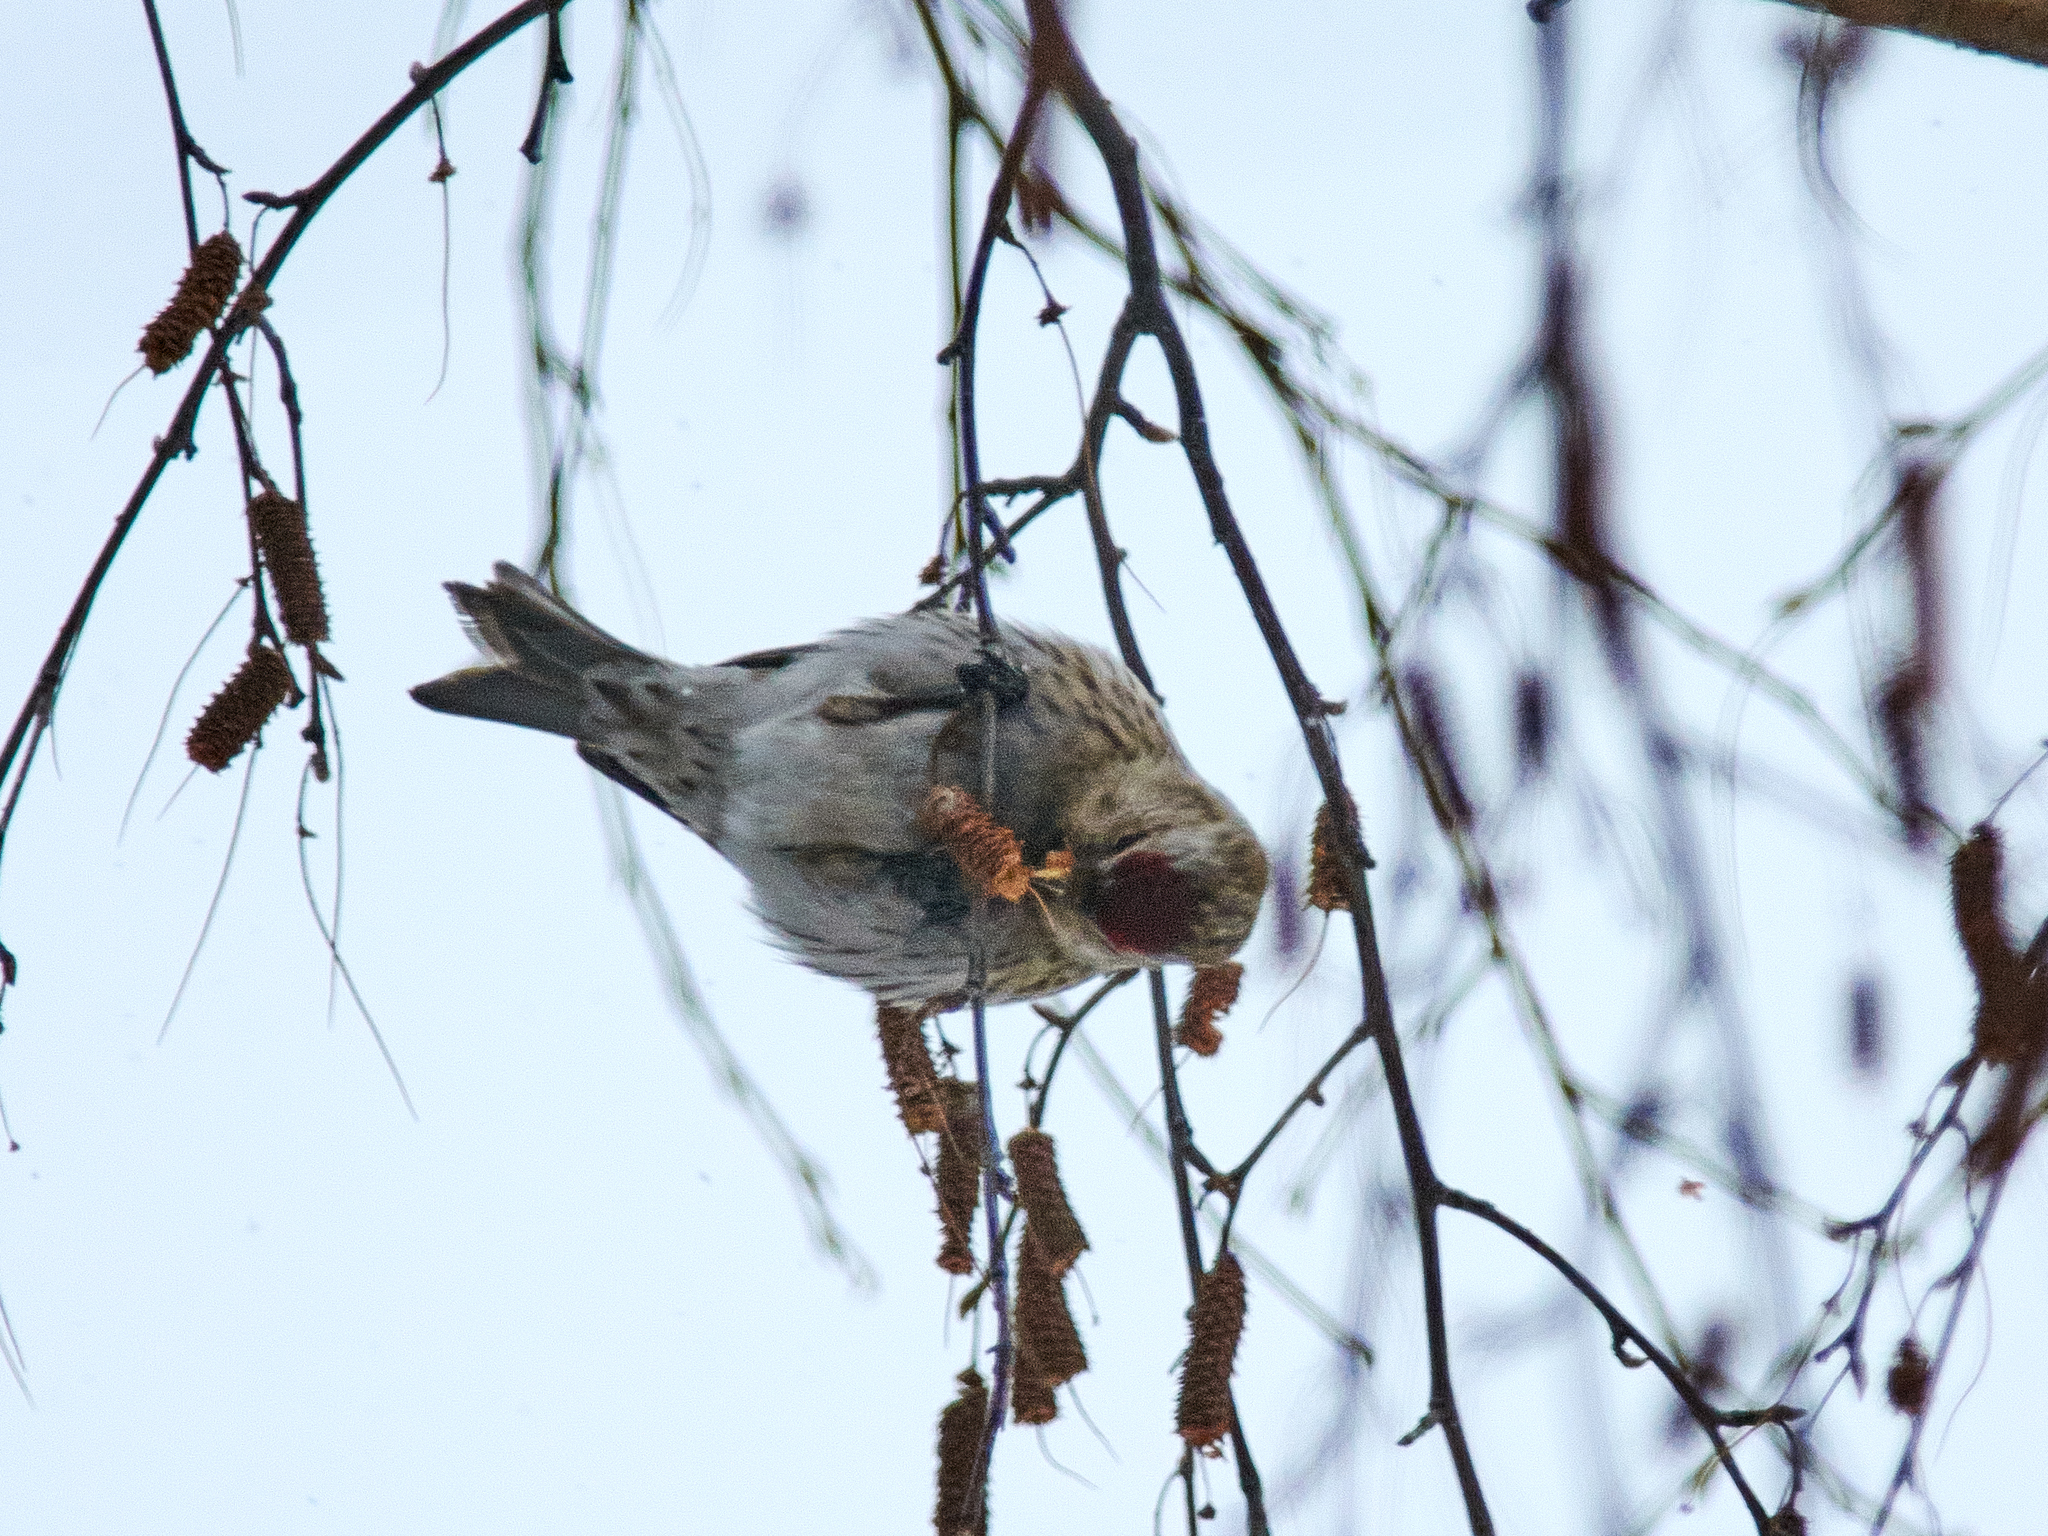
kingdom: Animalia
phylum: Chordata
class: Aves
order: Passeriformes
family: Fringillidae
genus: Acanthis
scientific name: Acanthis flammea
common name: Common redpoll
